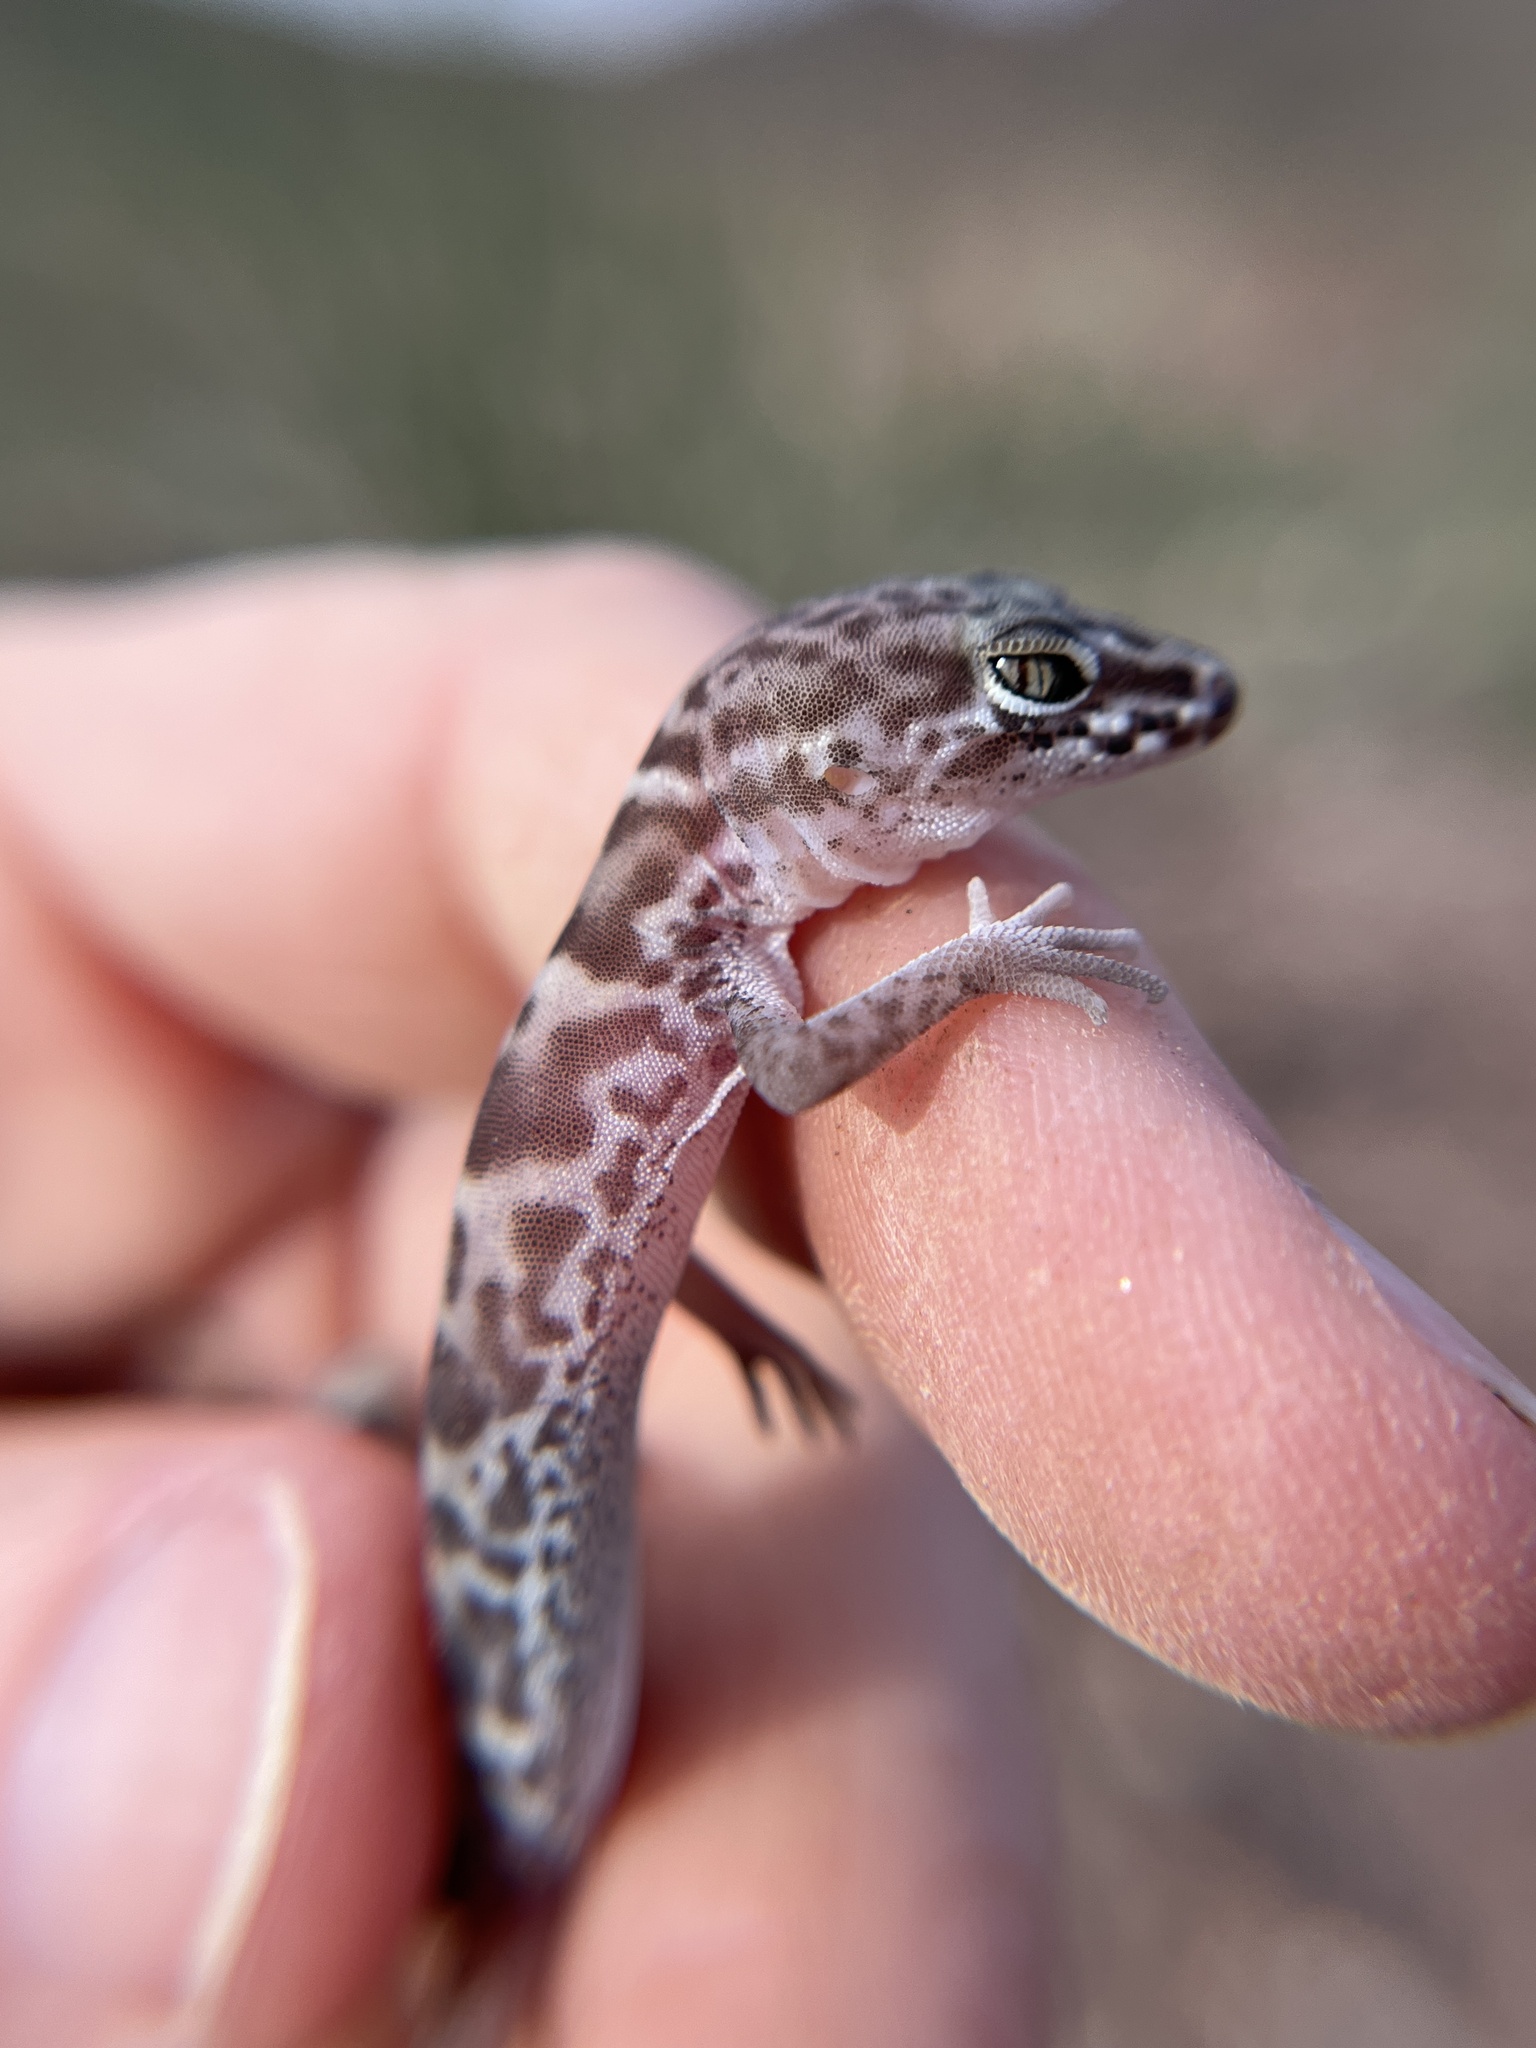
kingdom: Animalia
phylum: Chordata
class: Squamata
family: Eublepharidae
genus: Coleonyx
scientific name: Coleonyx variegatus
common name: Western banded gecko
